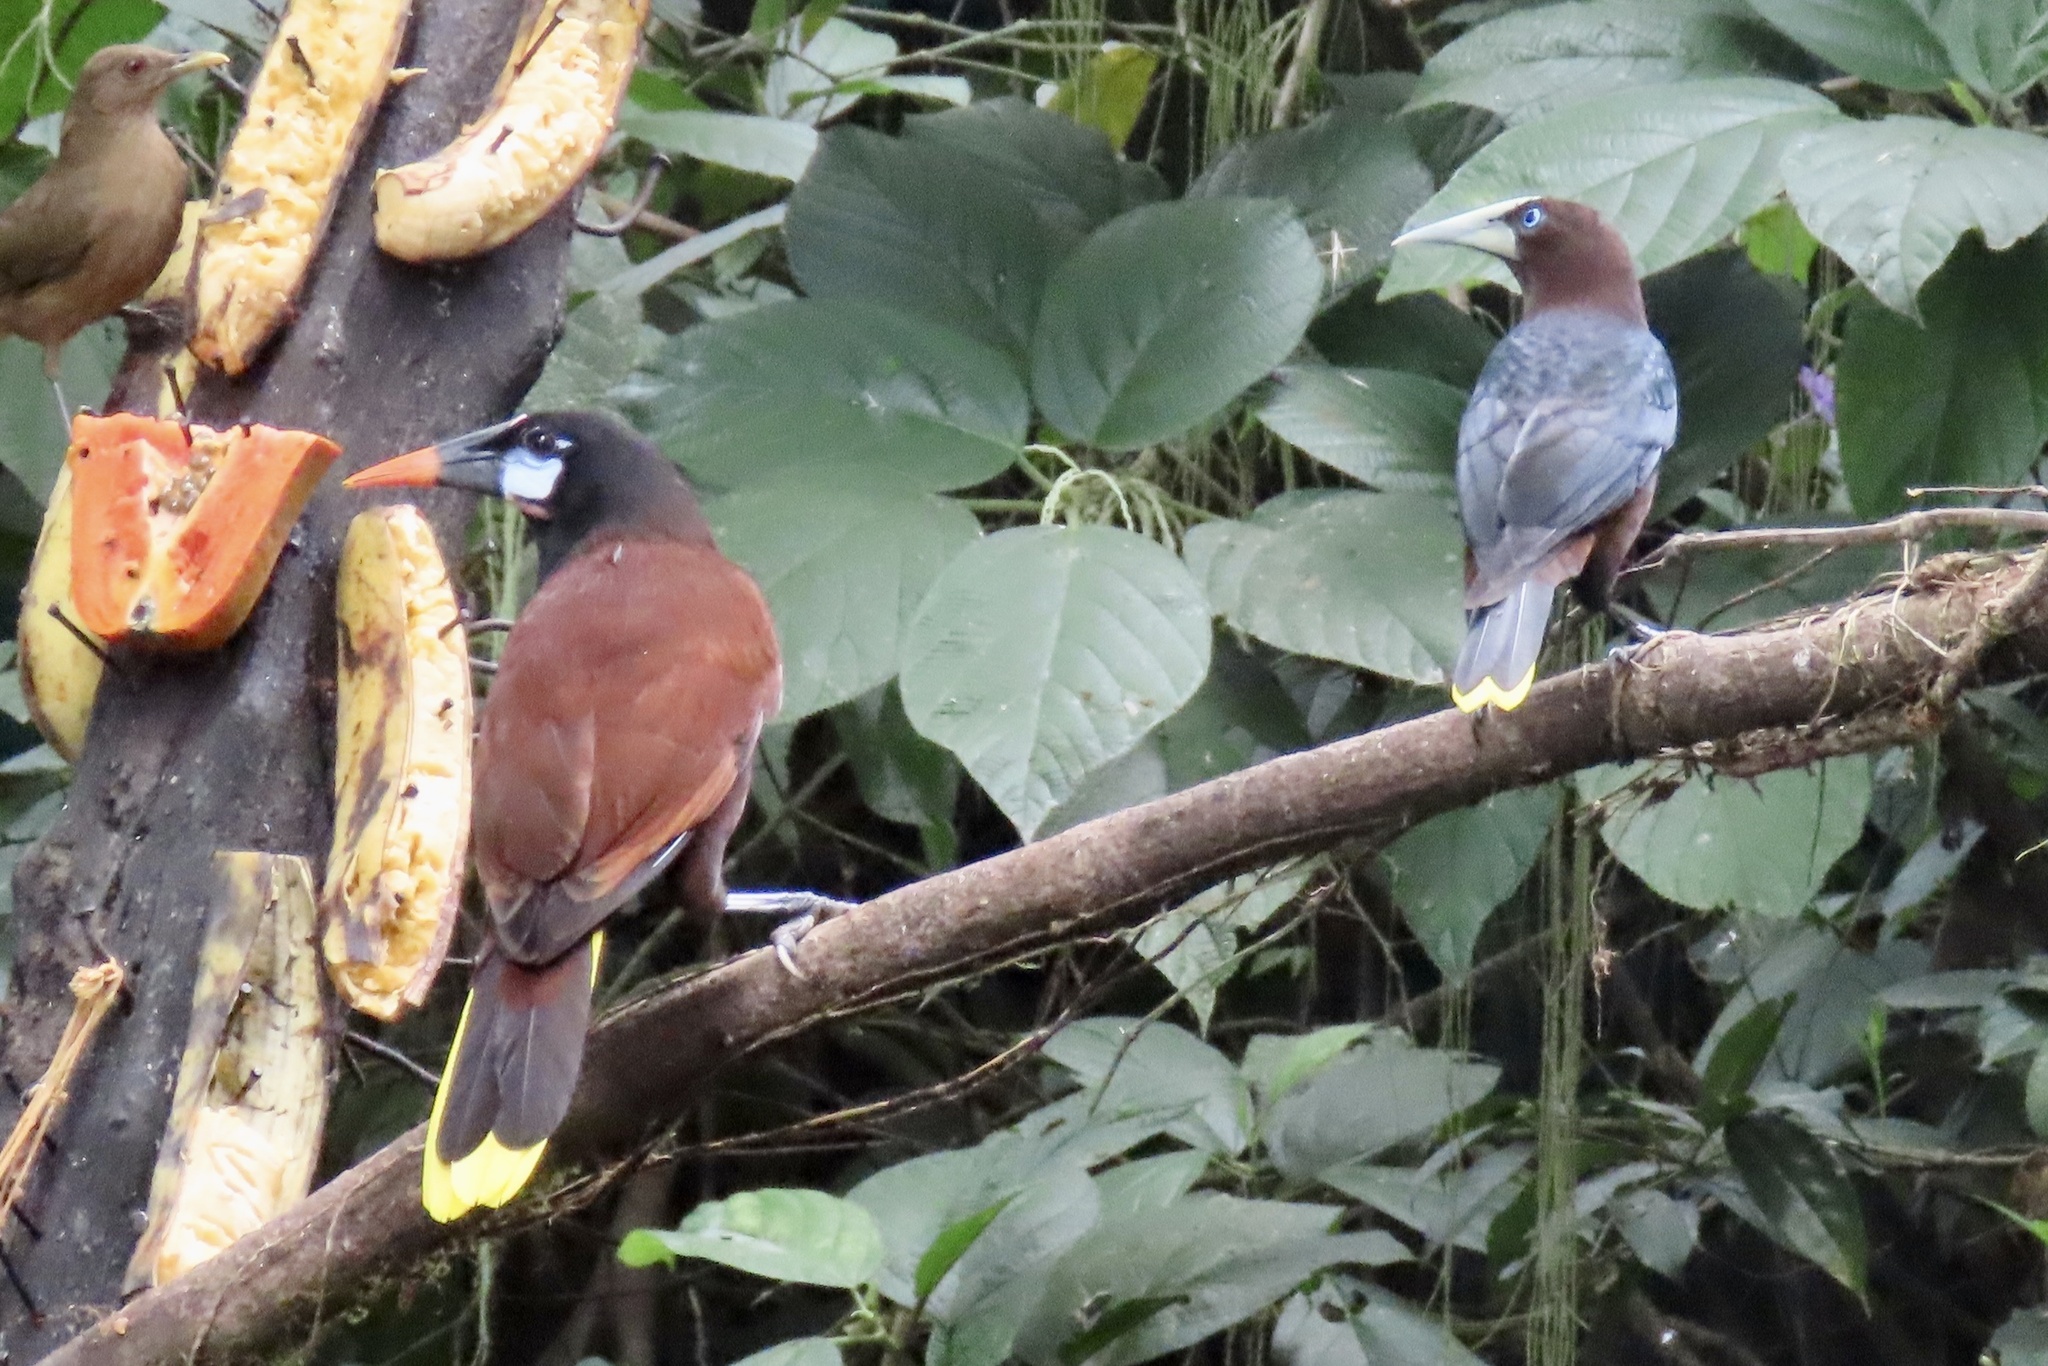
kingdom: Animalia
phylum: Chordata
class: Aves
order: Passeriformes
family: Icteridae
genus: Psarocolius
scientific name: Psarocolius montezuma
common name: Montezuma oropendola
